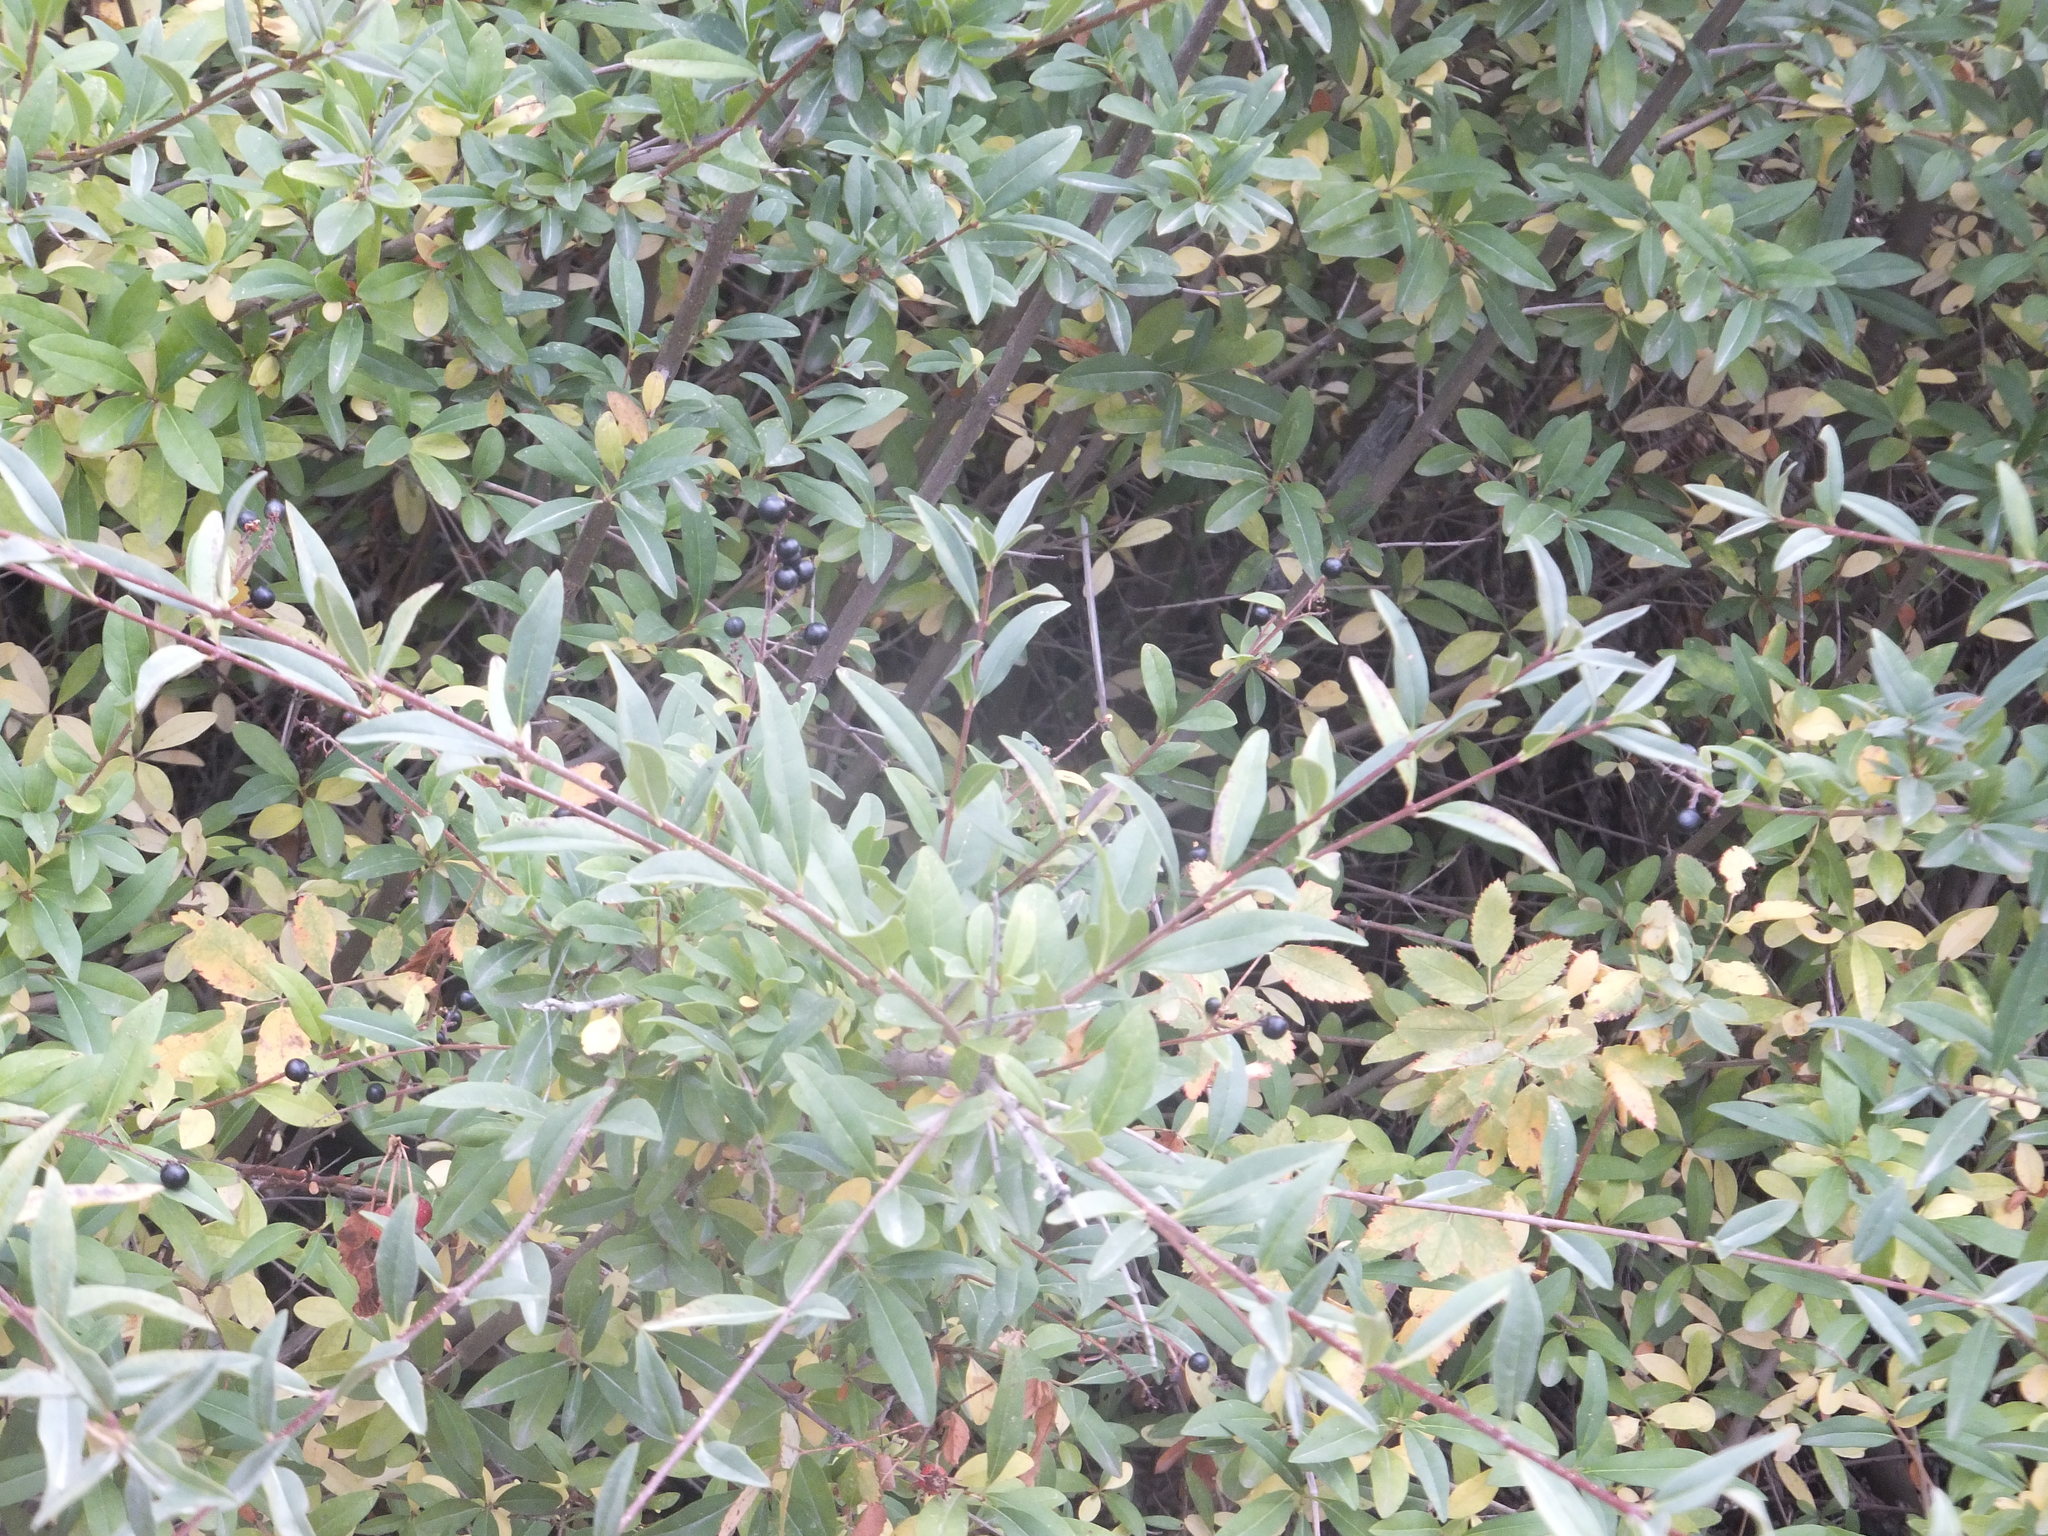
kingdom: Plantae
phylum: Tracheophyta
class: Magnoliopsida
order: Lamiales
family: Oleaceae
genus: Ligustrum
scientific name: Ligustrum vulgare
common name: Wild privet
